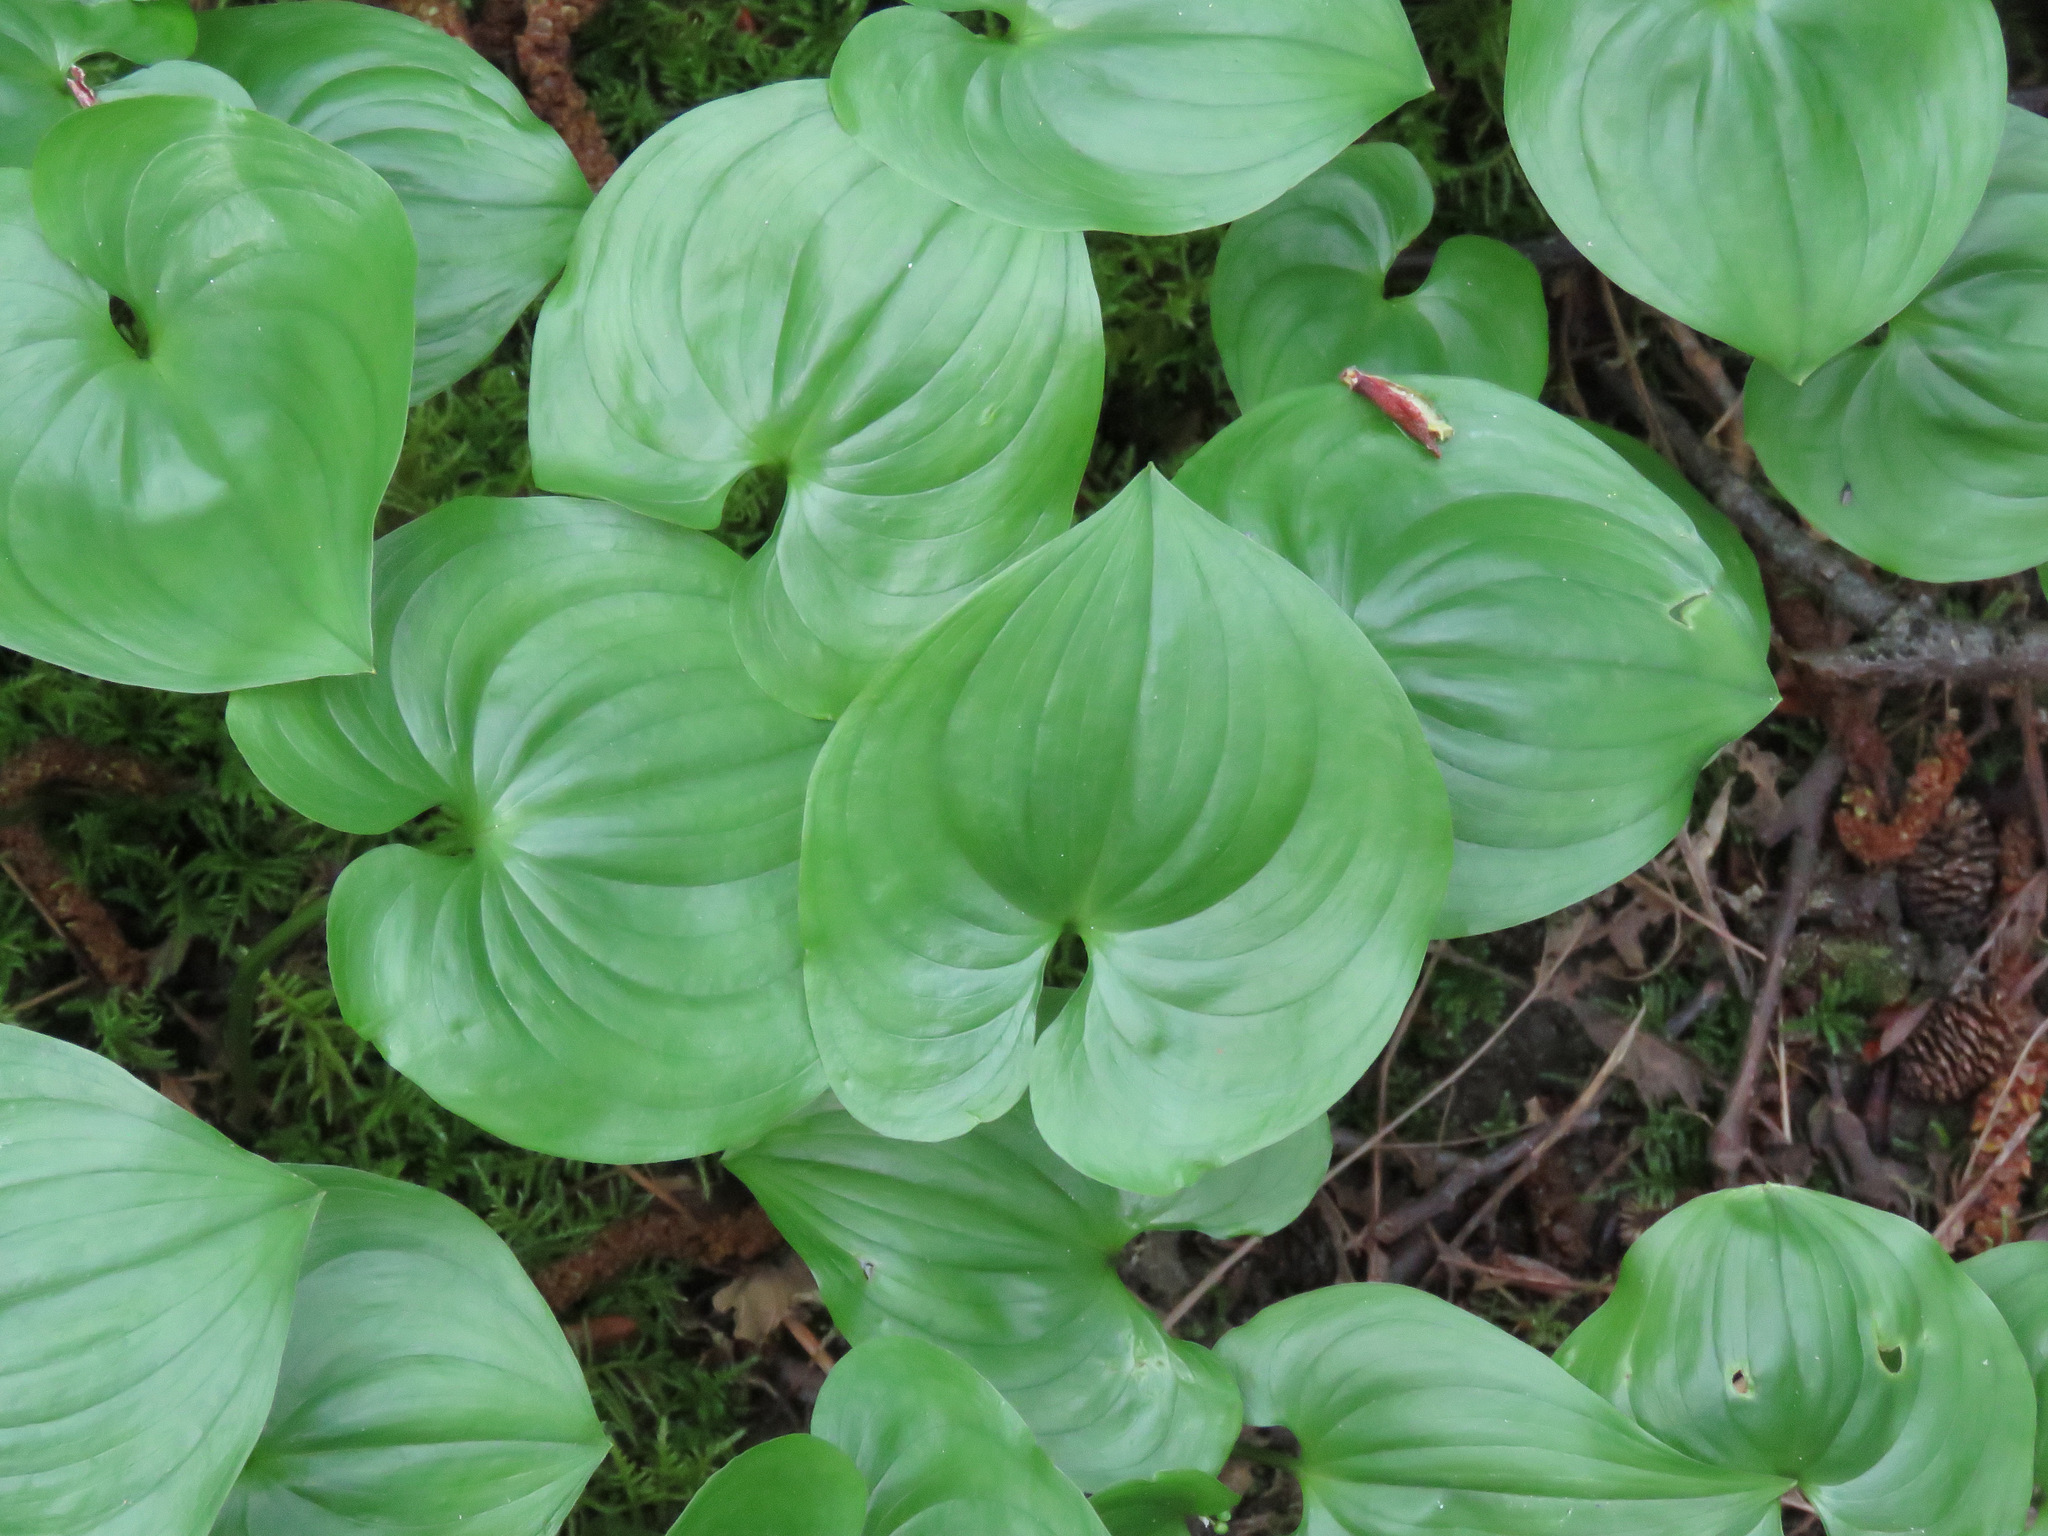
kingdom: Plantae
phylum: Tracheophyta
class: Liliopsida
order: Asparagales
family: Asparagaceae
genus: Maianthemum
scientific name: Maianthemum dilatatum
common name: False lily-of-the-valley
